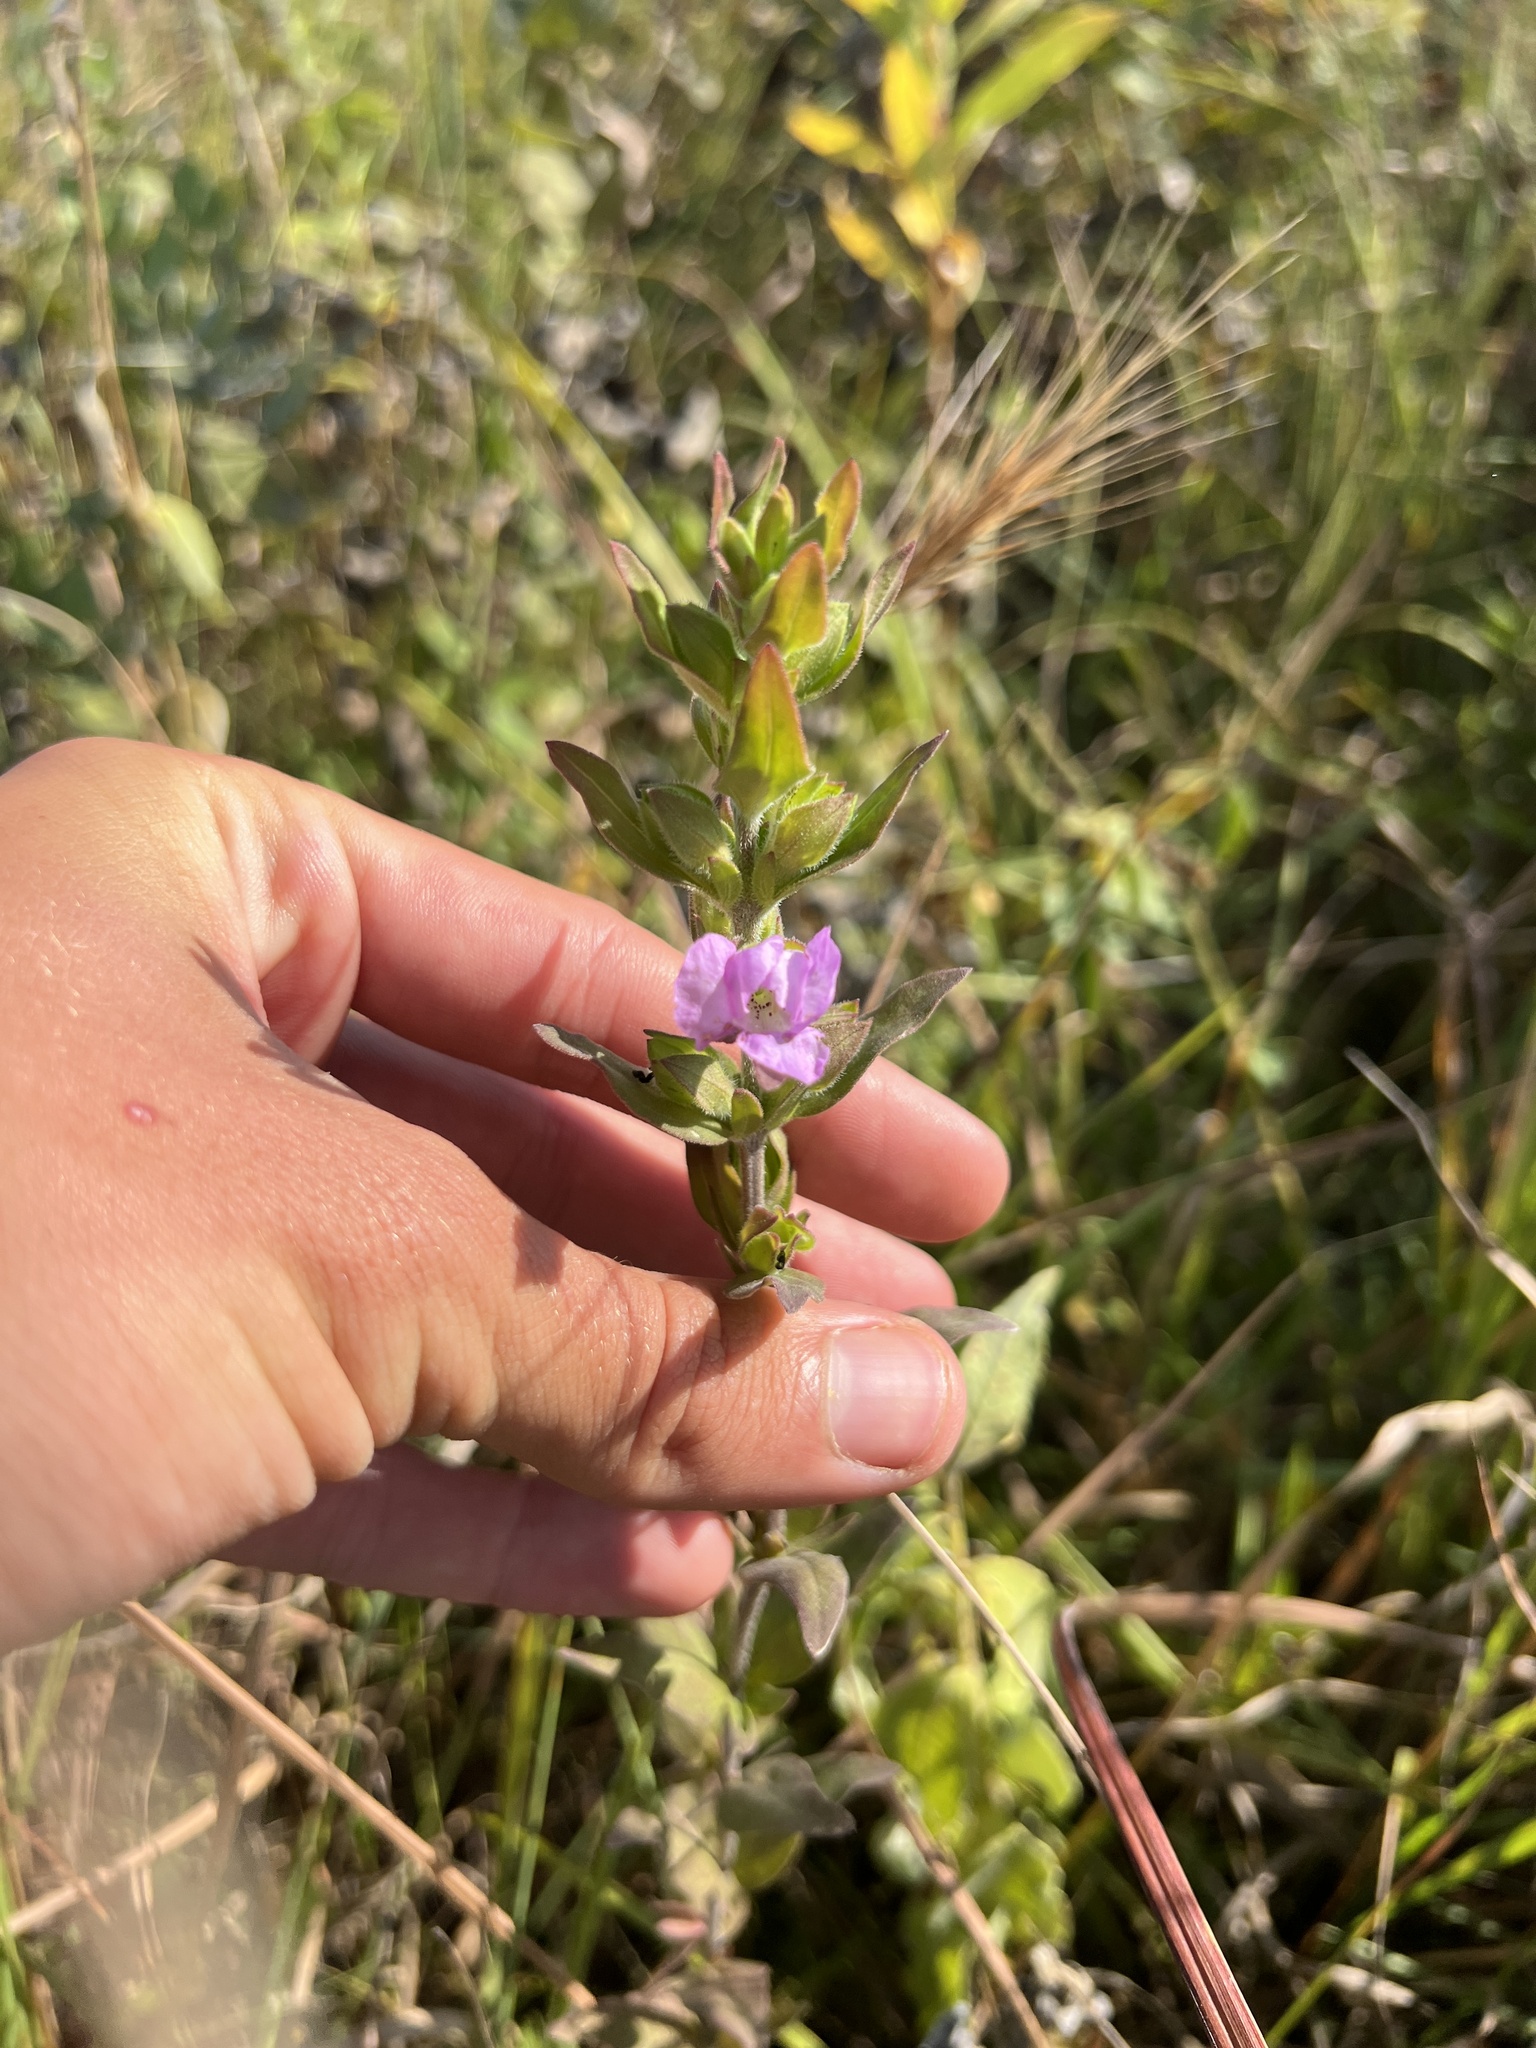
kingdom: Plantae
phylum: Tracheophyta
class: Magnoliopsida
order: Lamiales
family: Orobanchaceae
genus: Agalinis
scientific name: Agalinis auriculata
